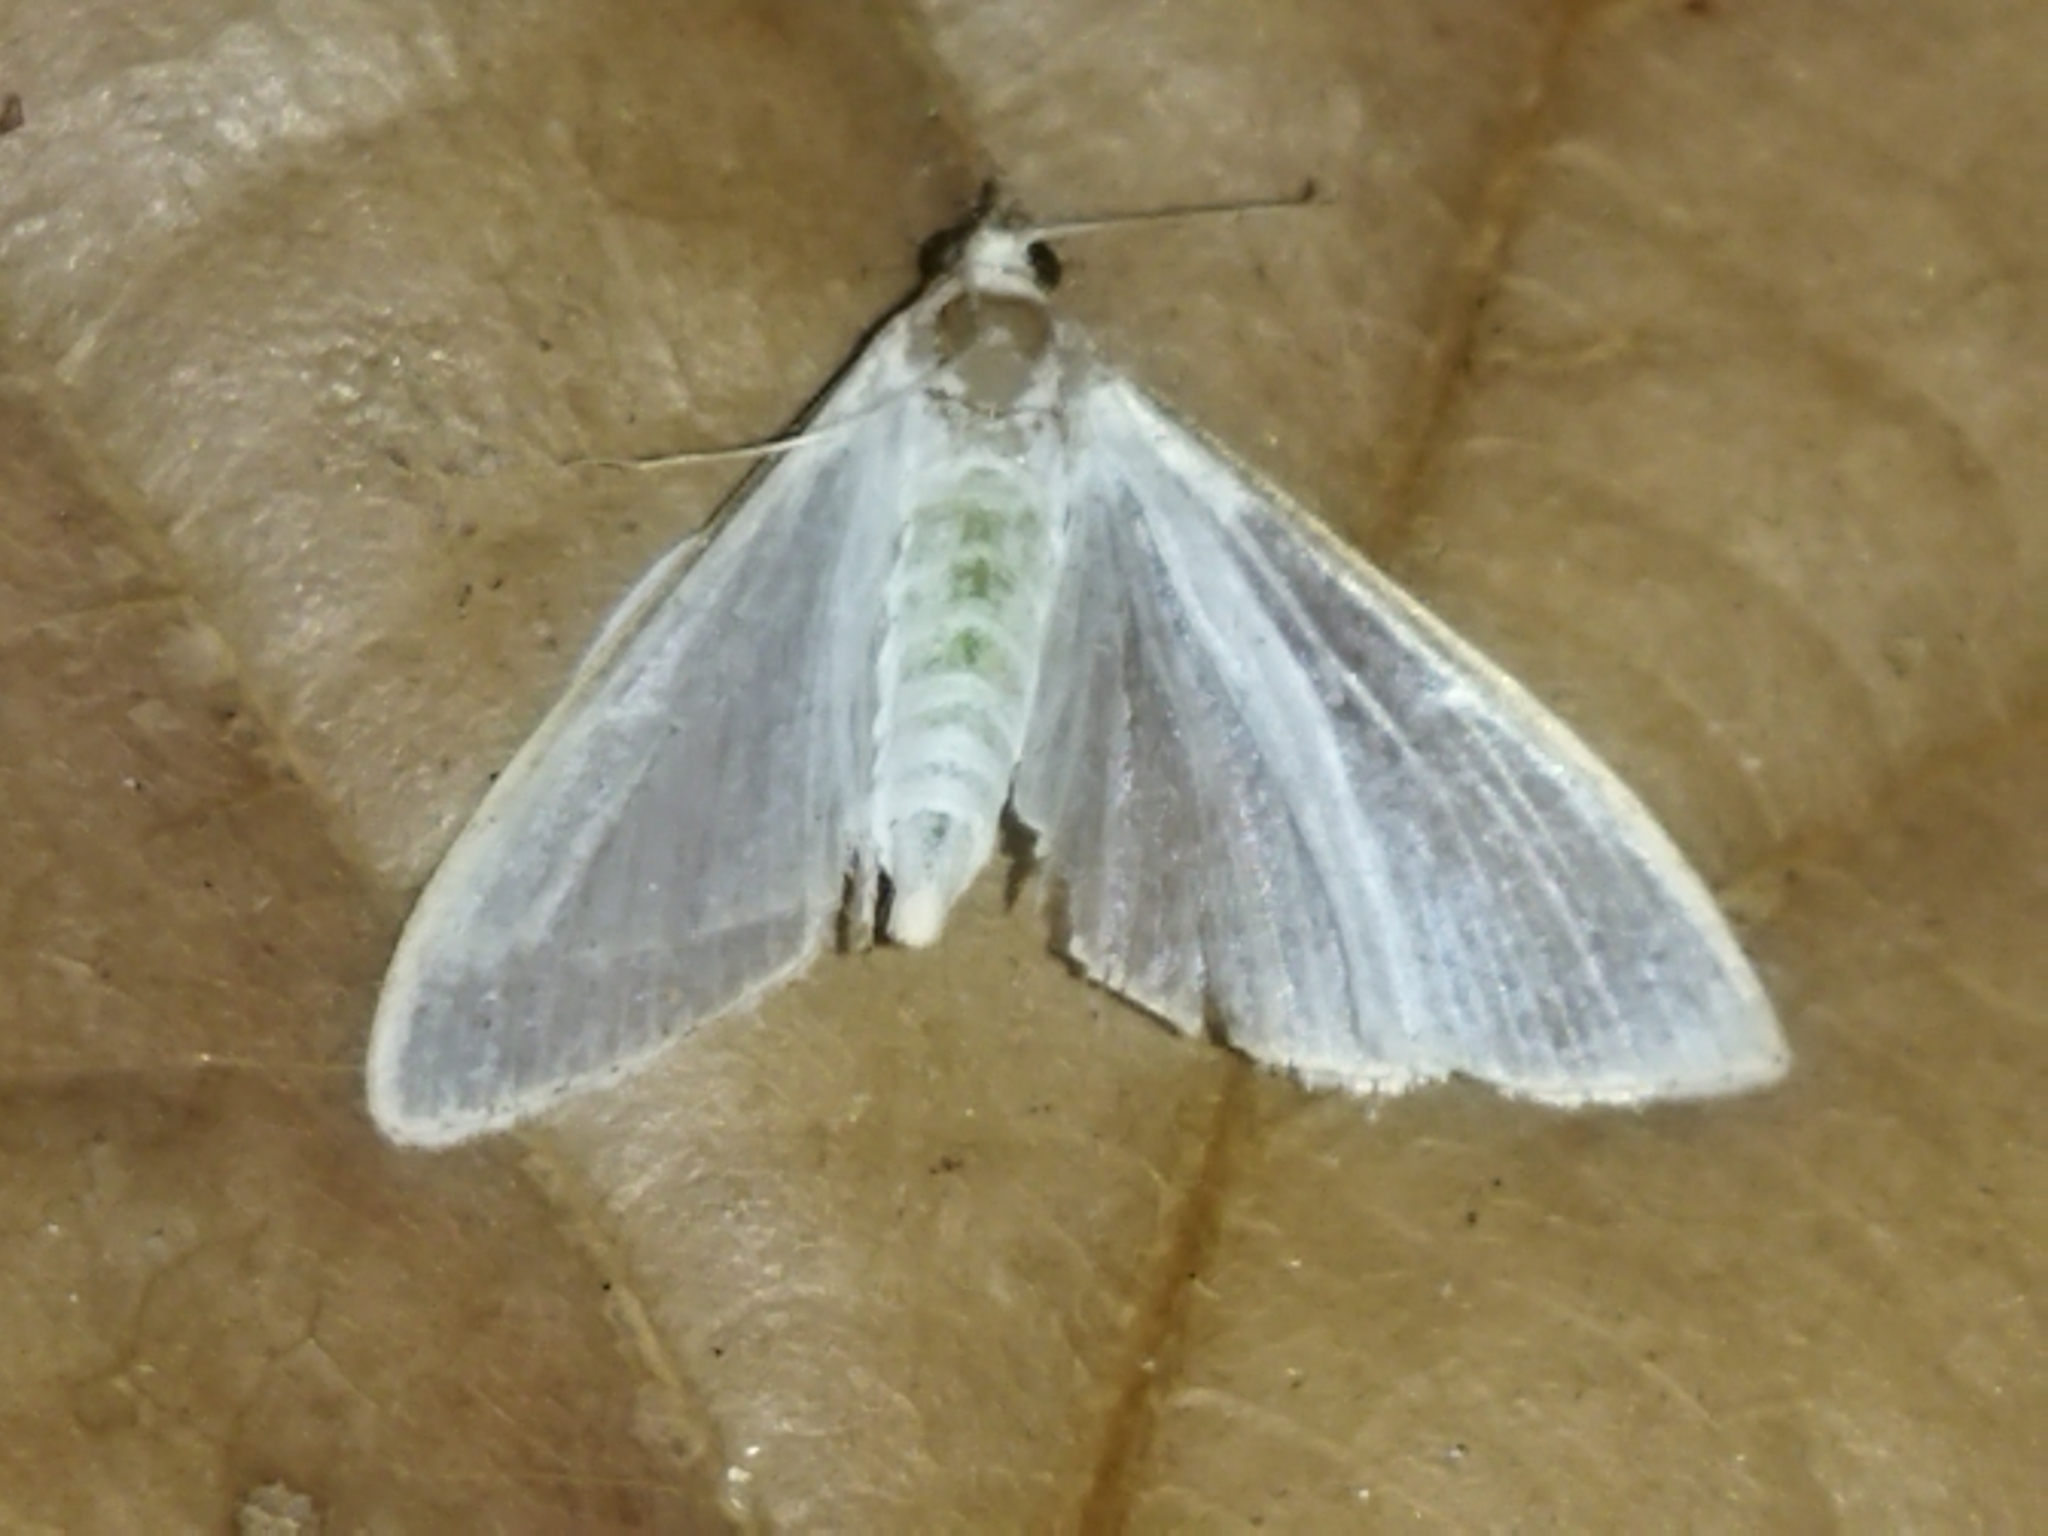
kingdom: Animalia
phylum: Arthropoda
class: Insecta
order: Lepidoptera
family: Crambidae
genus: Palpita
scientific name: Palpita vitrealis
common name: Olive-tree pearl
